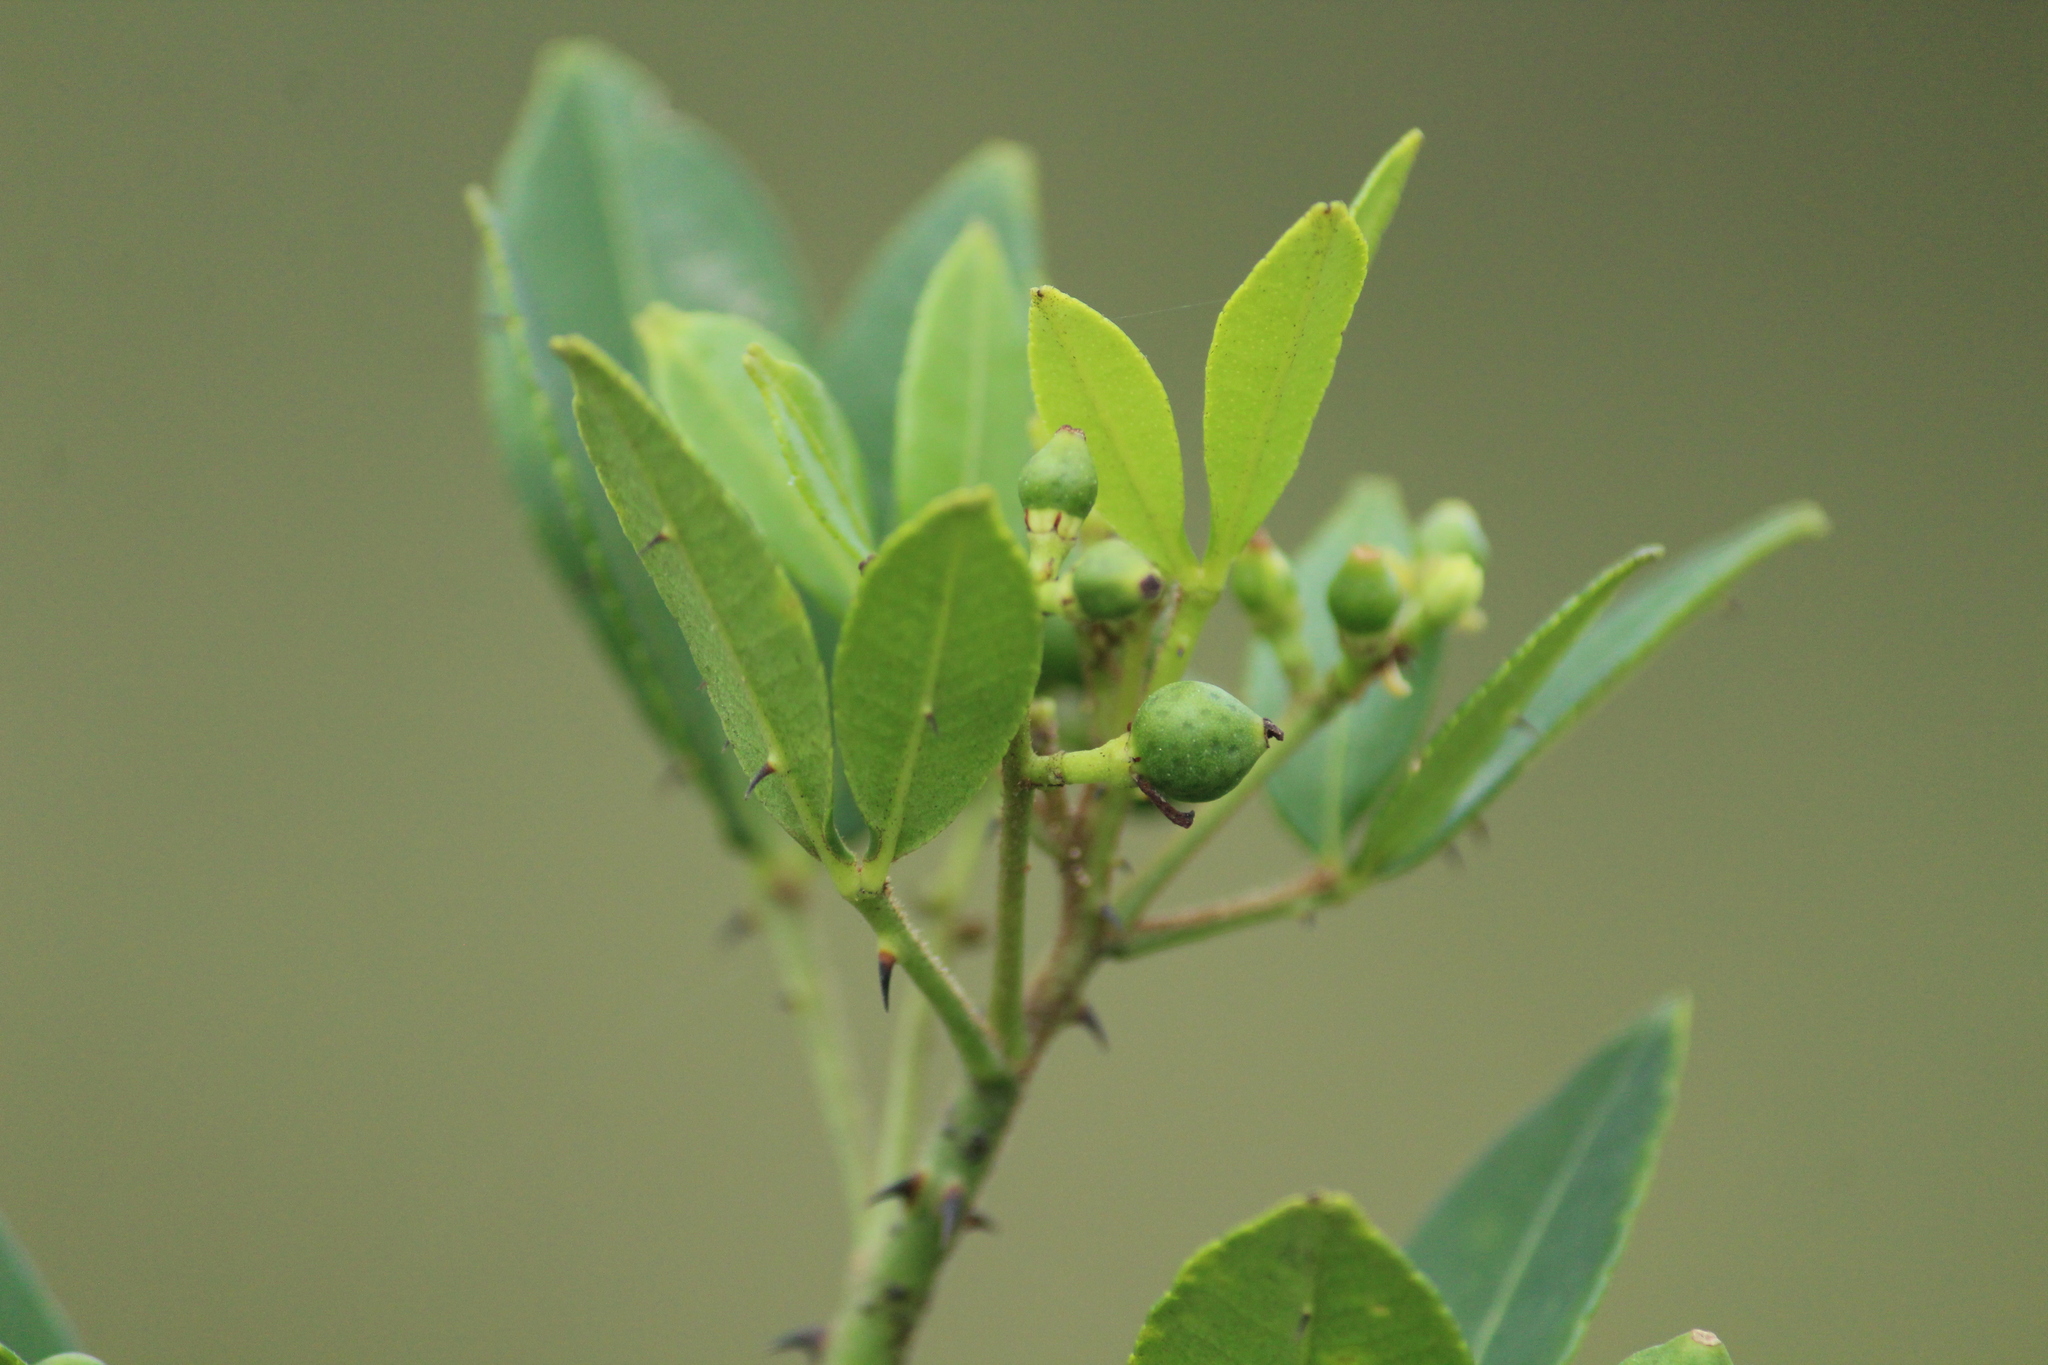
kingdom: Plantae
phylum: Tracheophyta
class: Magnoliopsida
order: Sapindales
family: Rutaceae
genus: Zanthoxylum
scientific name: Zanthoxylum asiaticum
